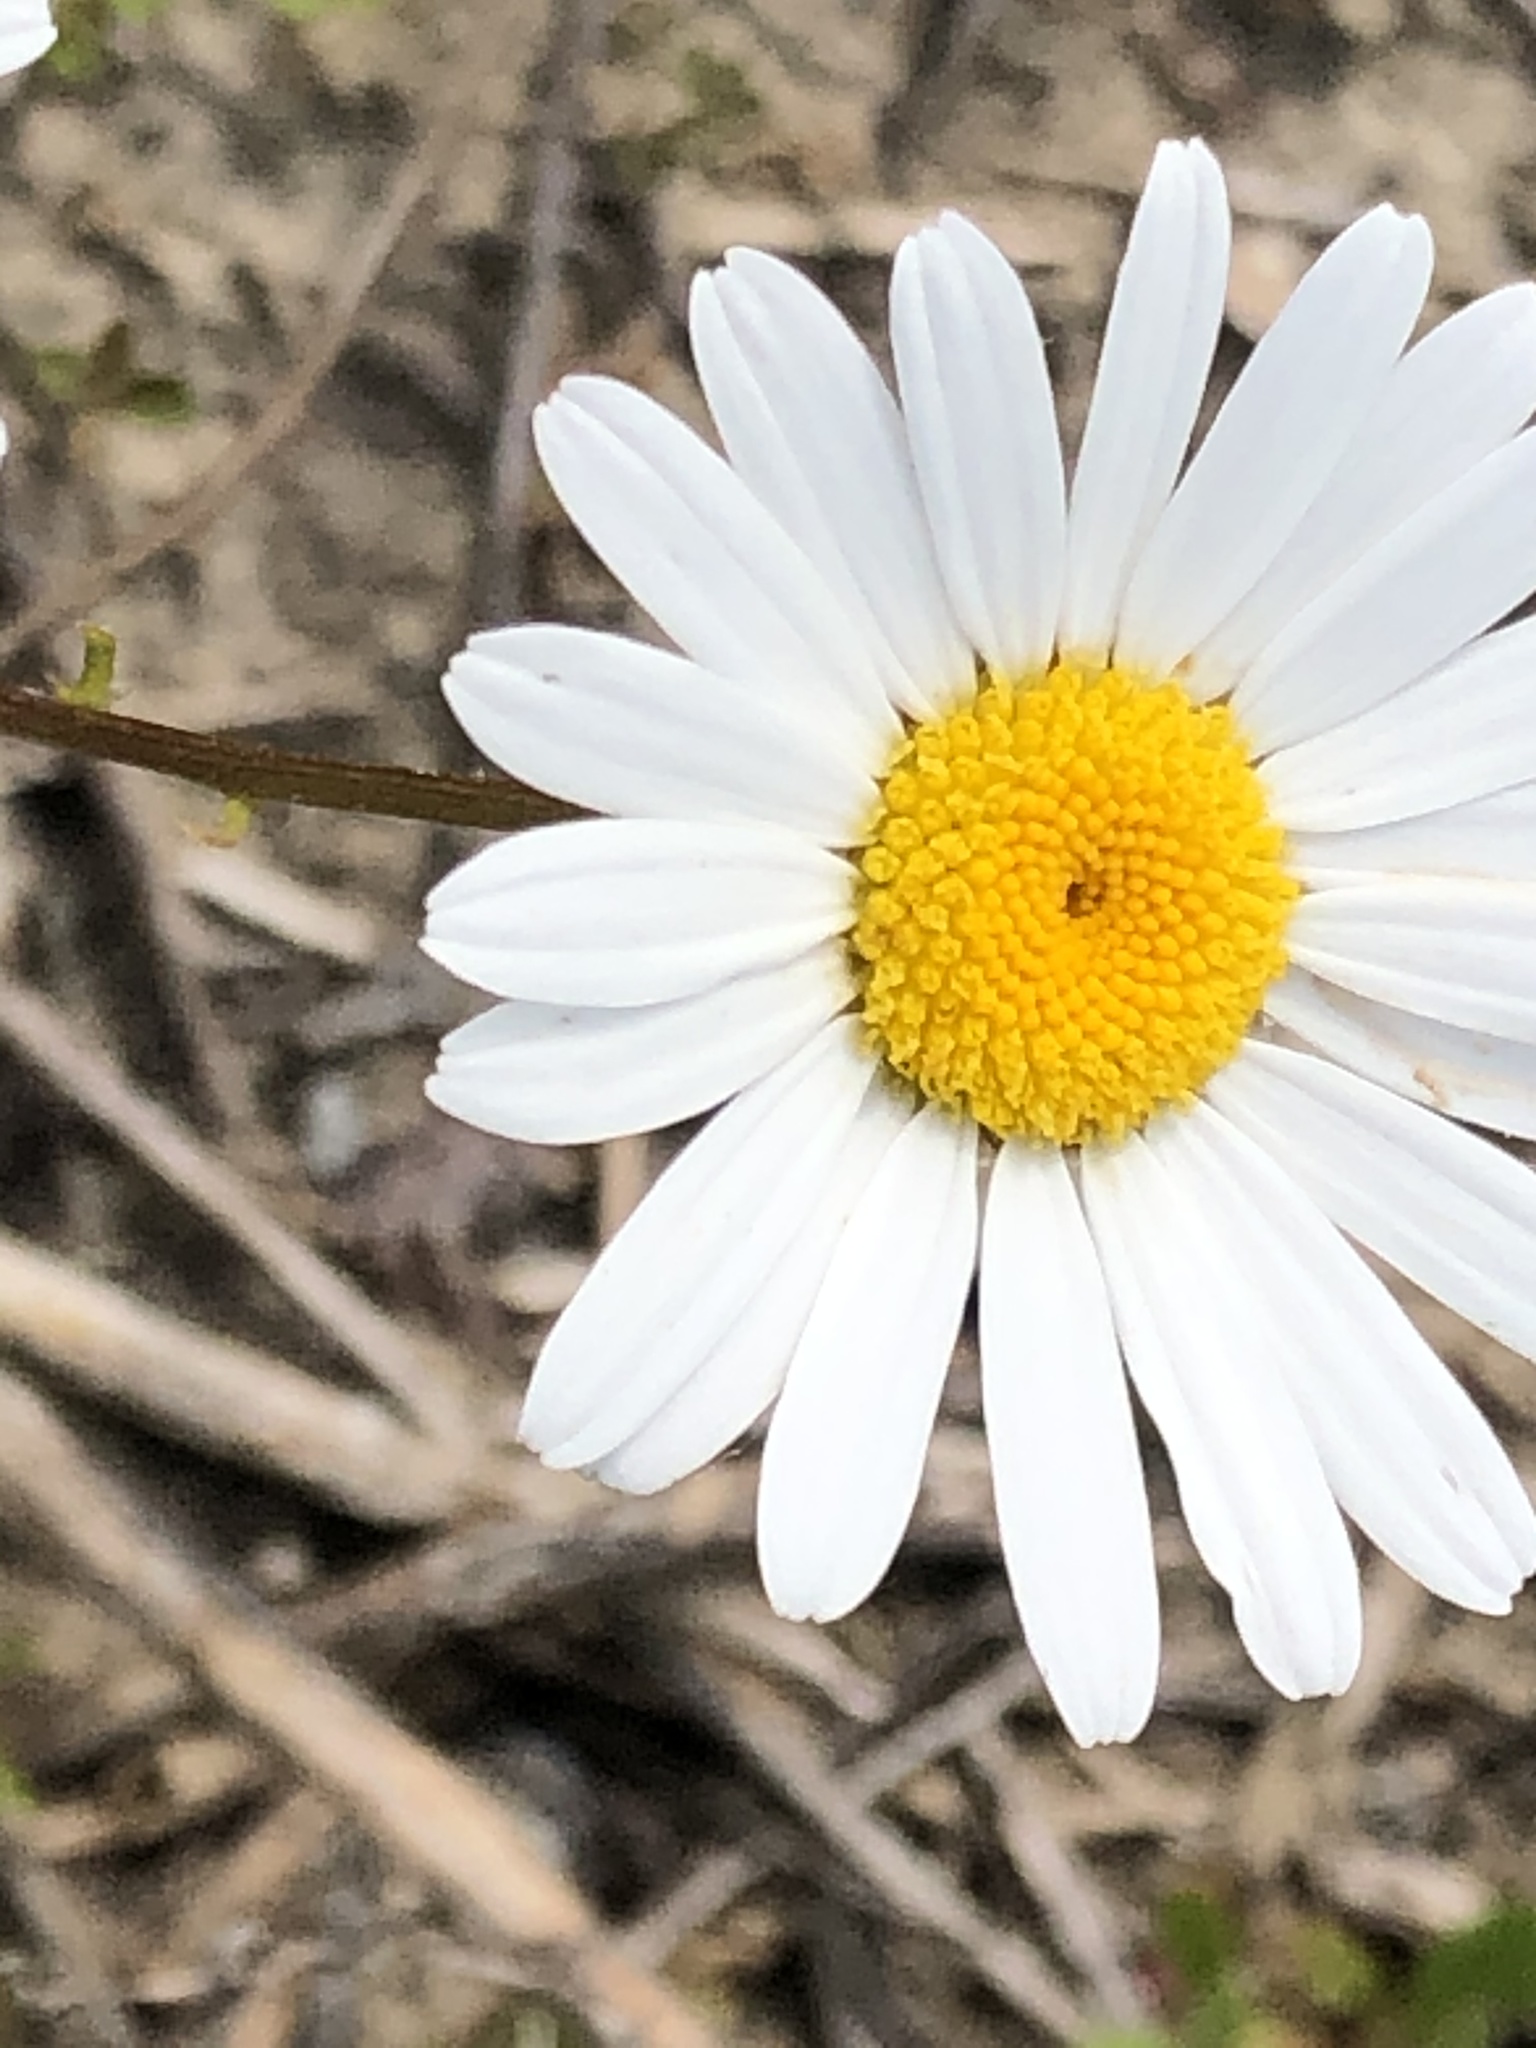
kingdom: Plantae
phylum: Tracheophyta
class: Magnoliopsida
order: Asterales
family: Asteraceae
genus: Leucanthemum
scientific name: Leucanthemum vulgare
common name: Oxeye daisy
